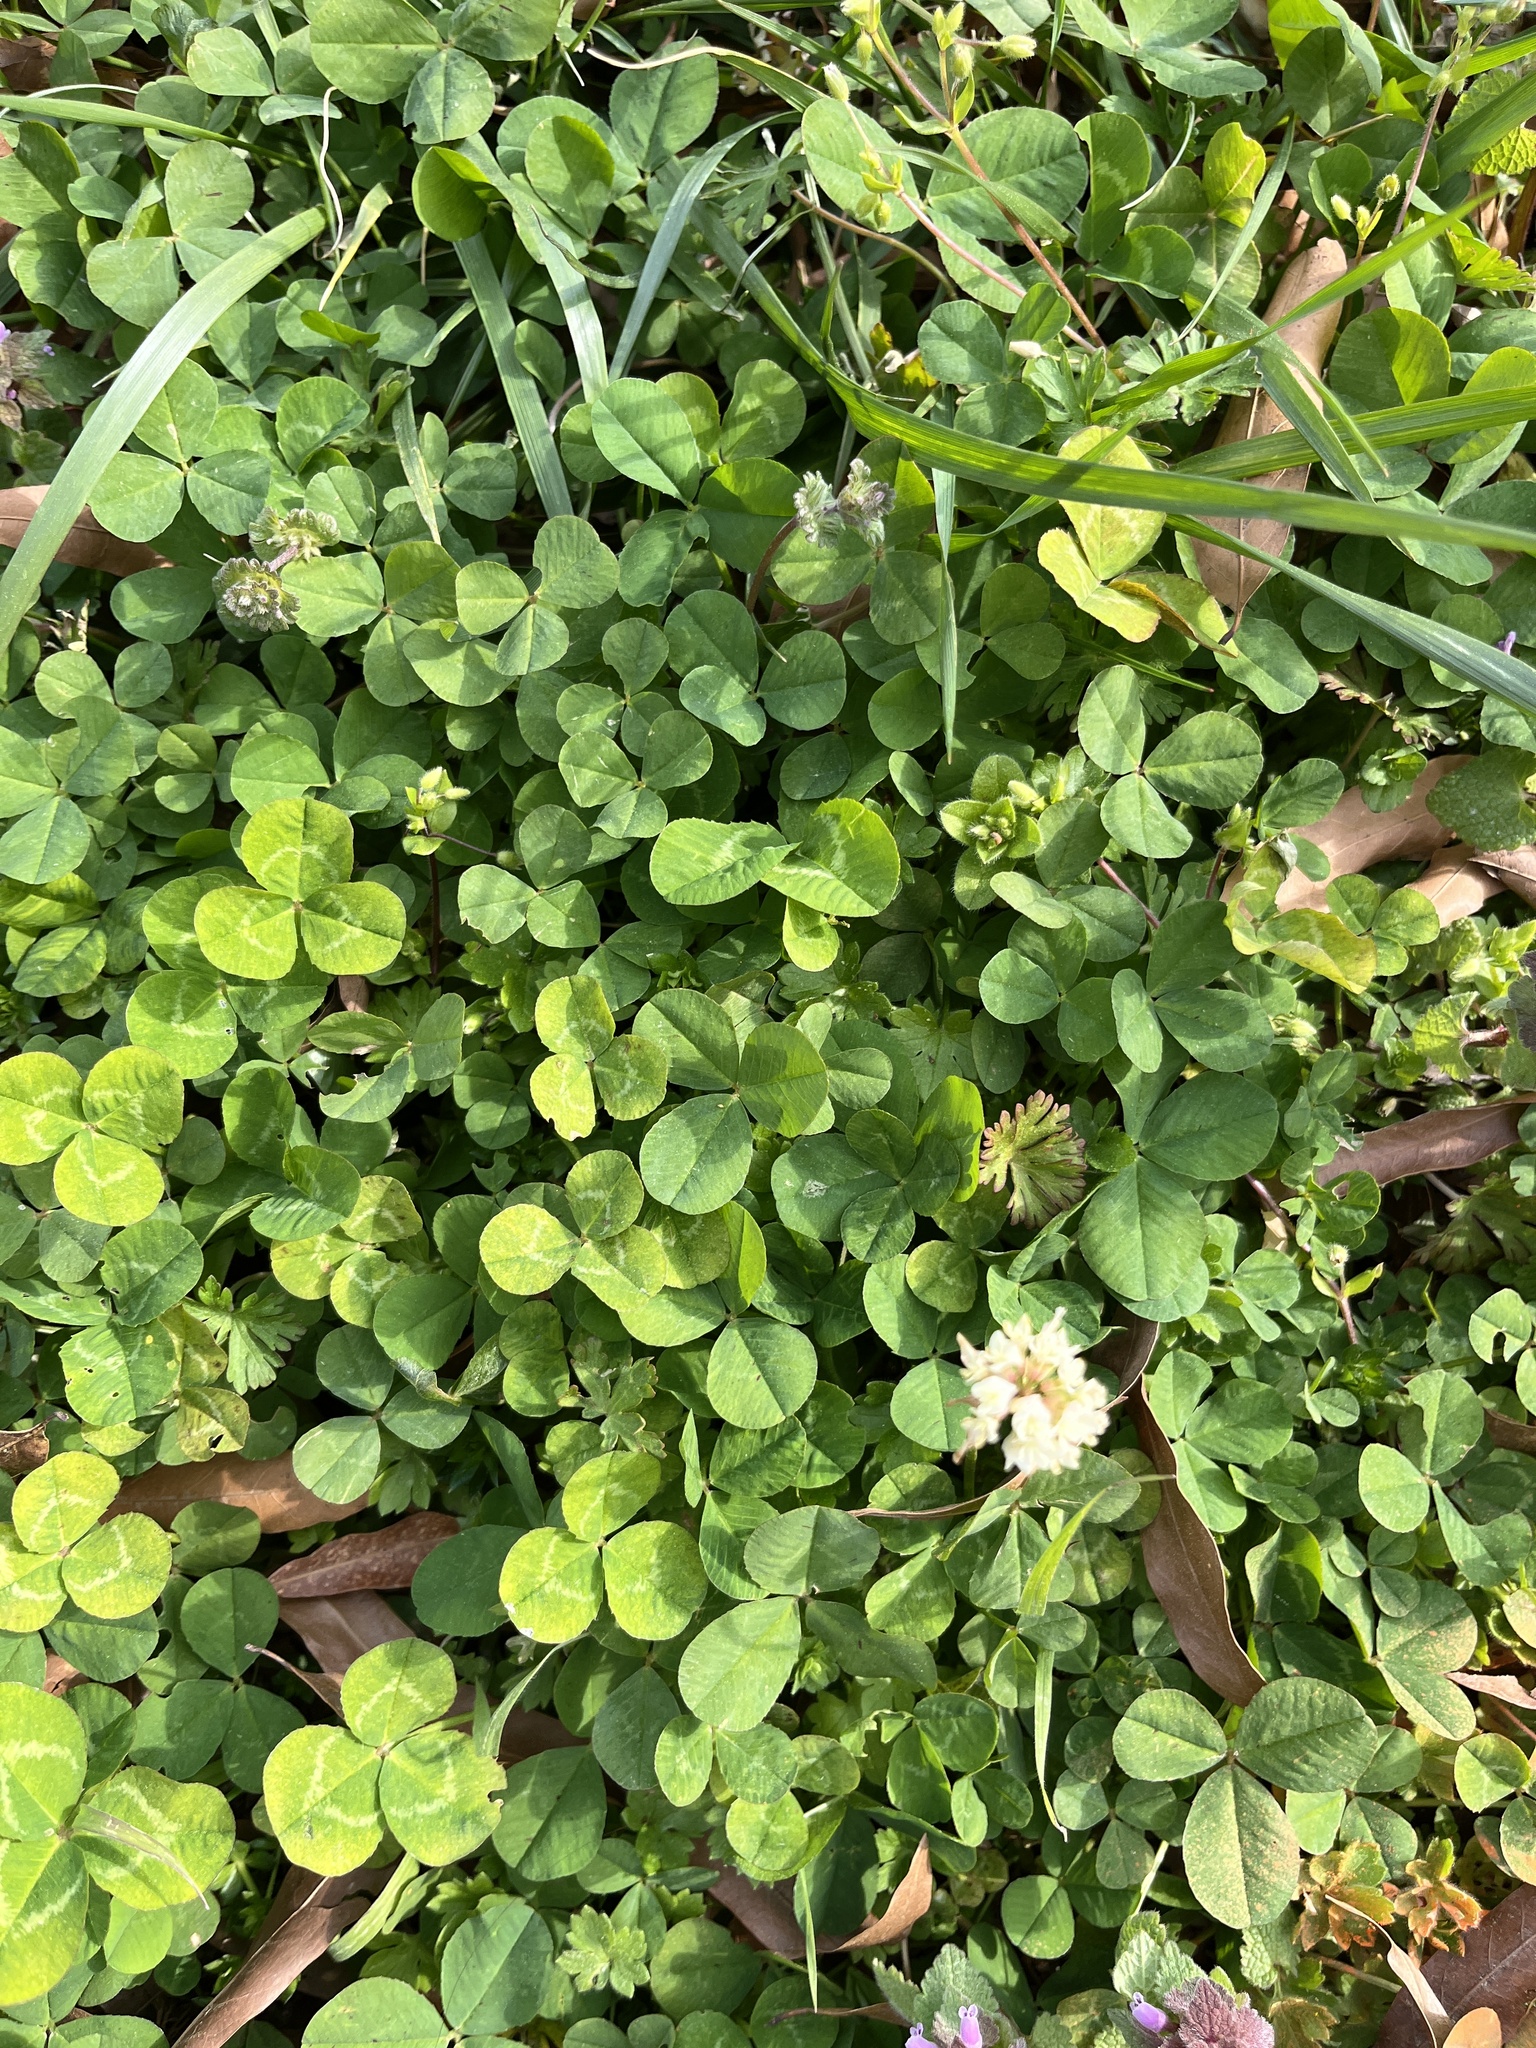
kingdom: Plantae
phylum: Tracheophyta
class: Magnoliopsida
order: Fabales
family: Fabaceae
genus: Trifolium
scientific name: Trifolium repens
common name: White clover
